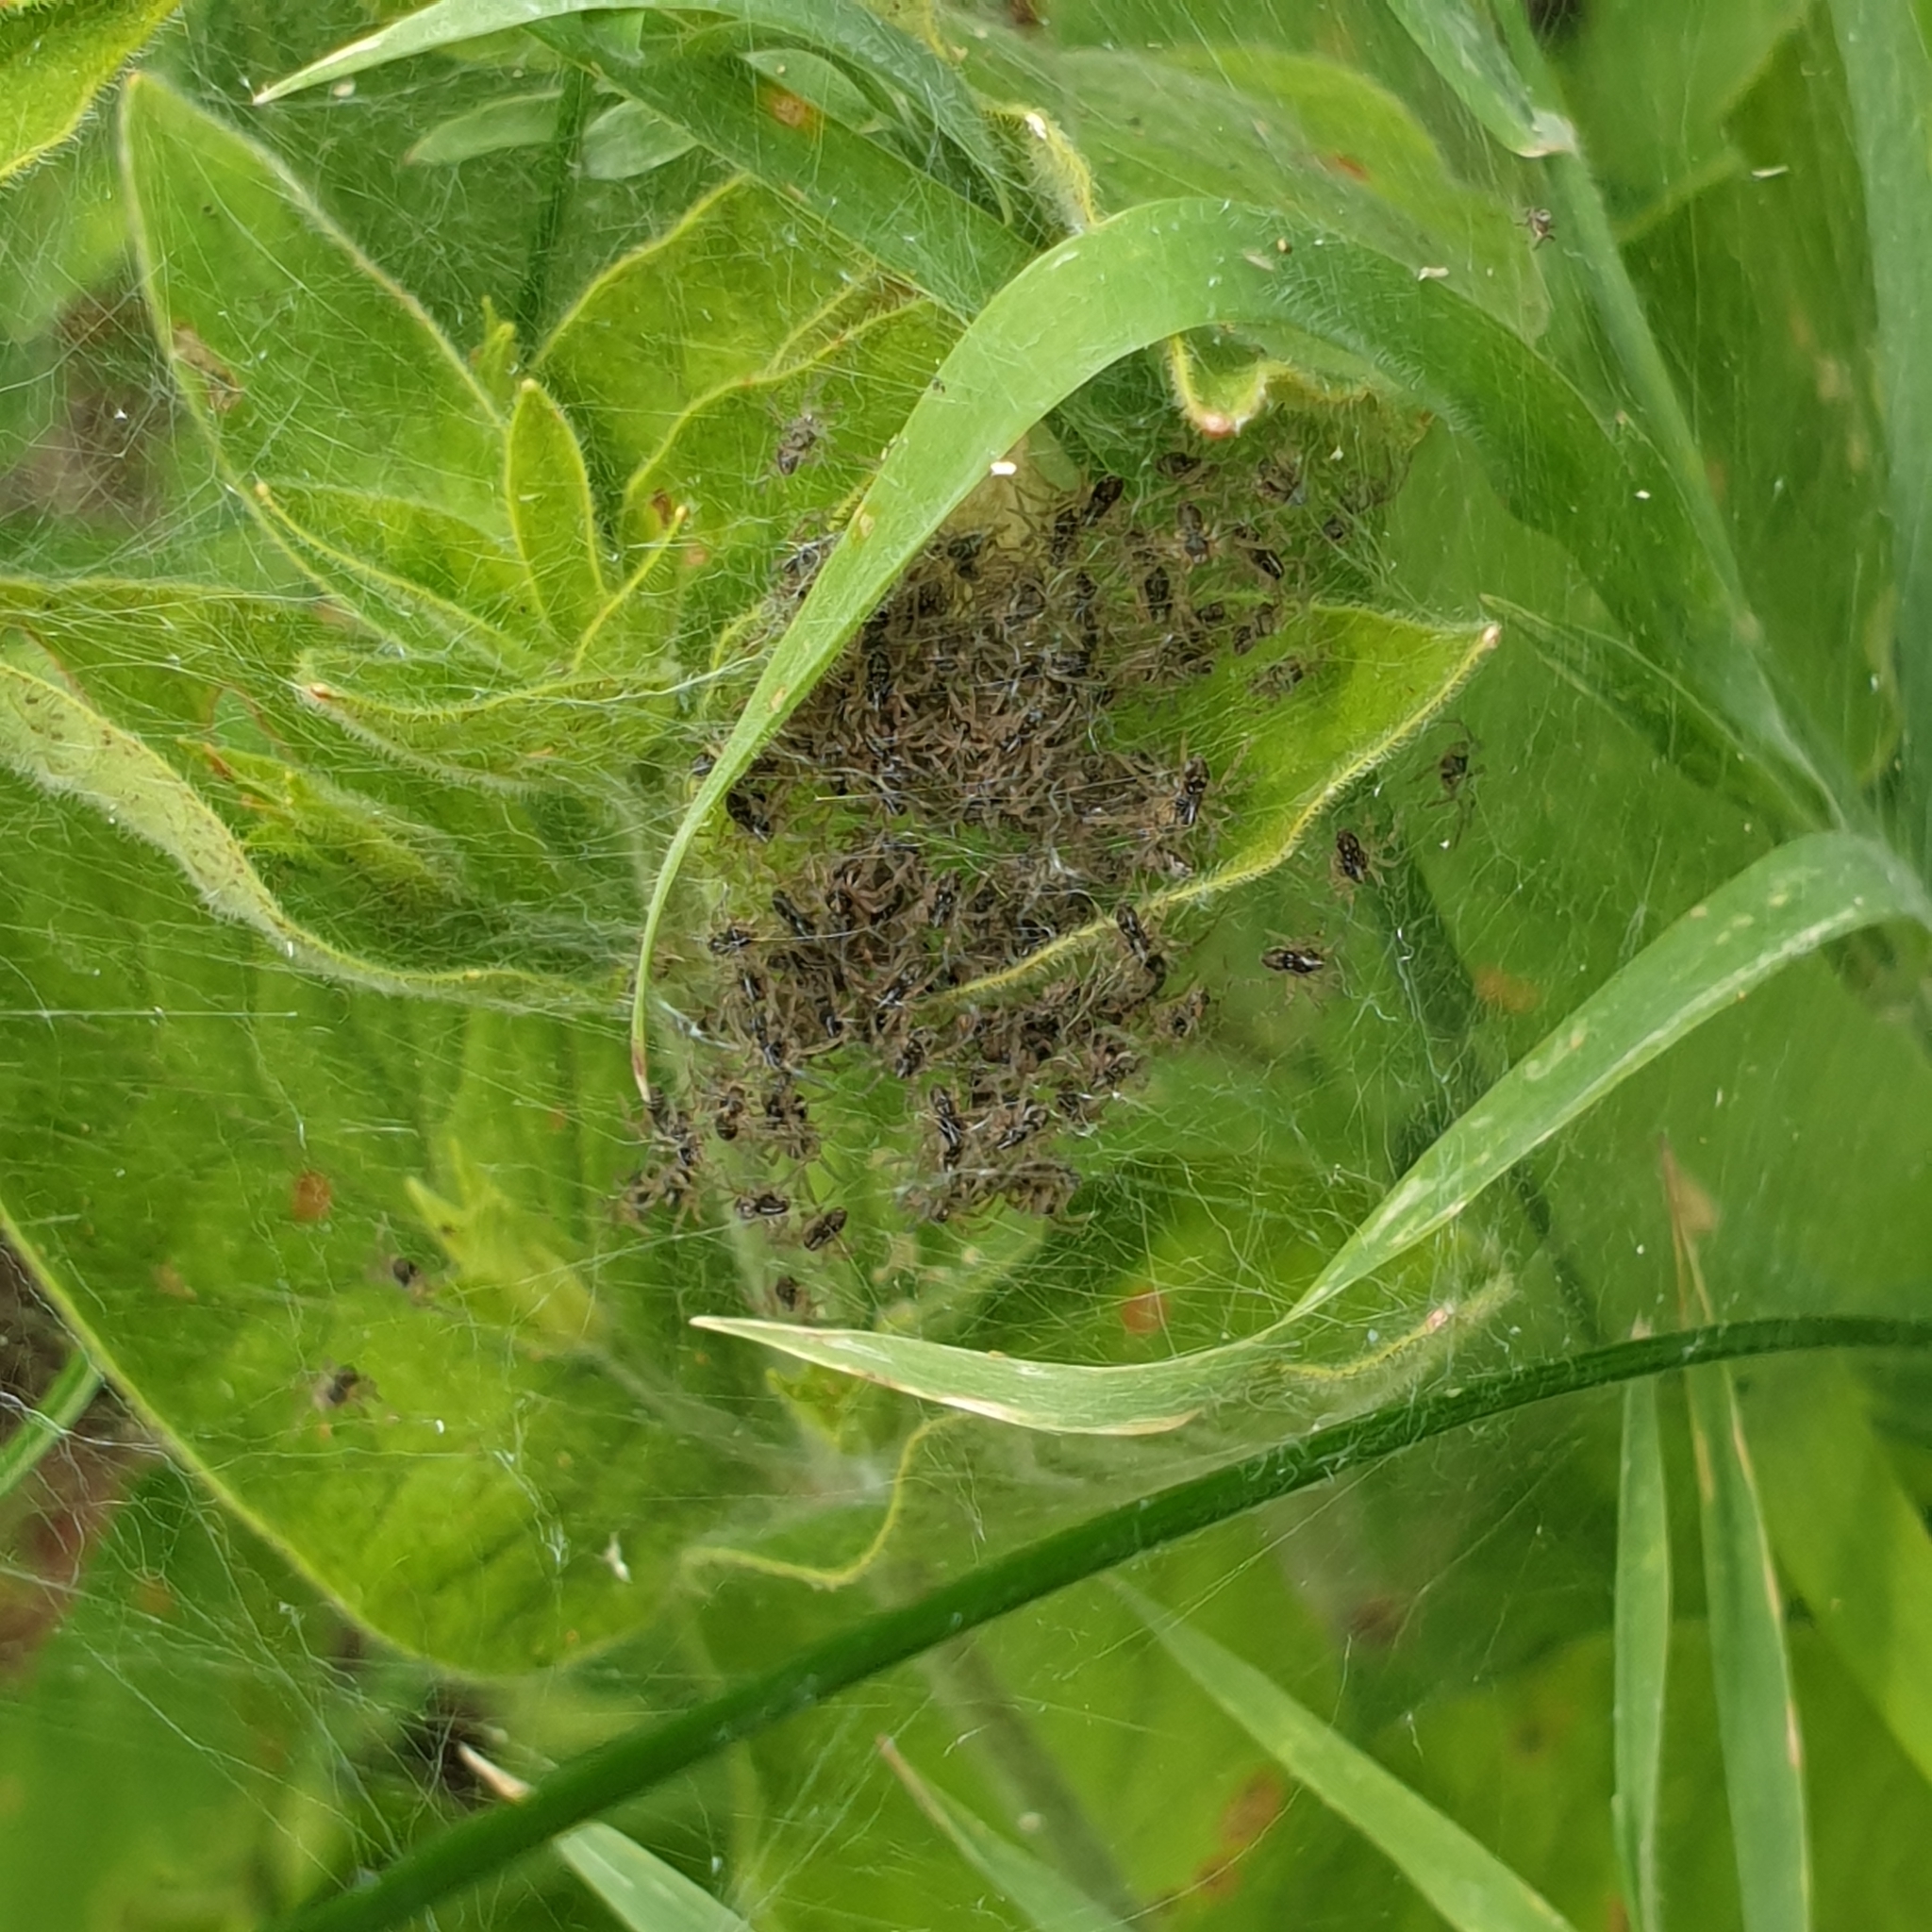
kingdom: Animalia
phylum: Arthropoda
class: Arachnida
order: Araneae
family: Pisauridae
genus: Pisaura
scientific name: Pisaura mirabilis
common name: Tent spider
